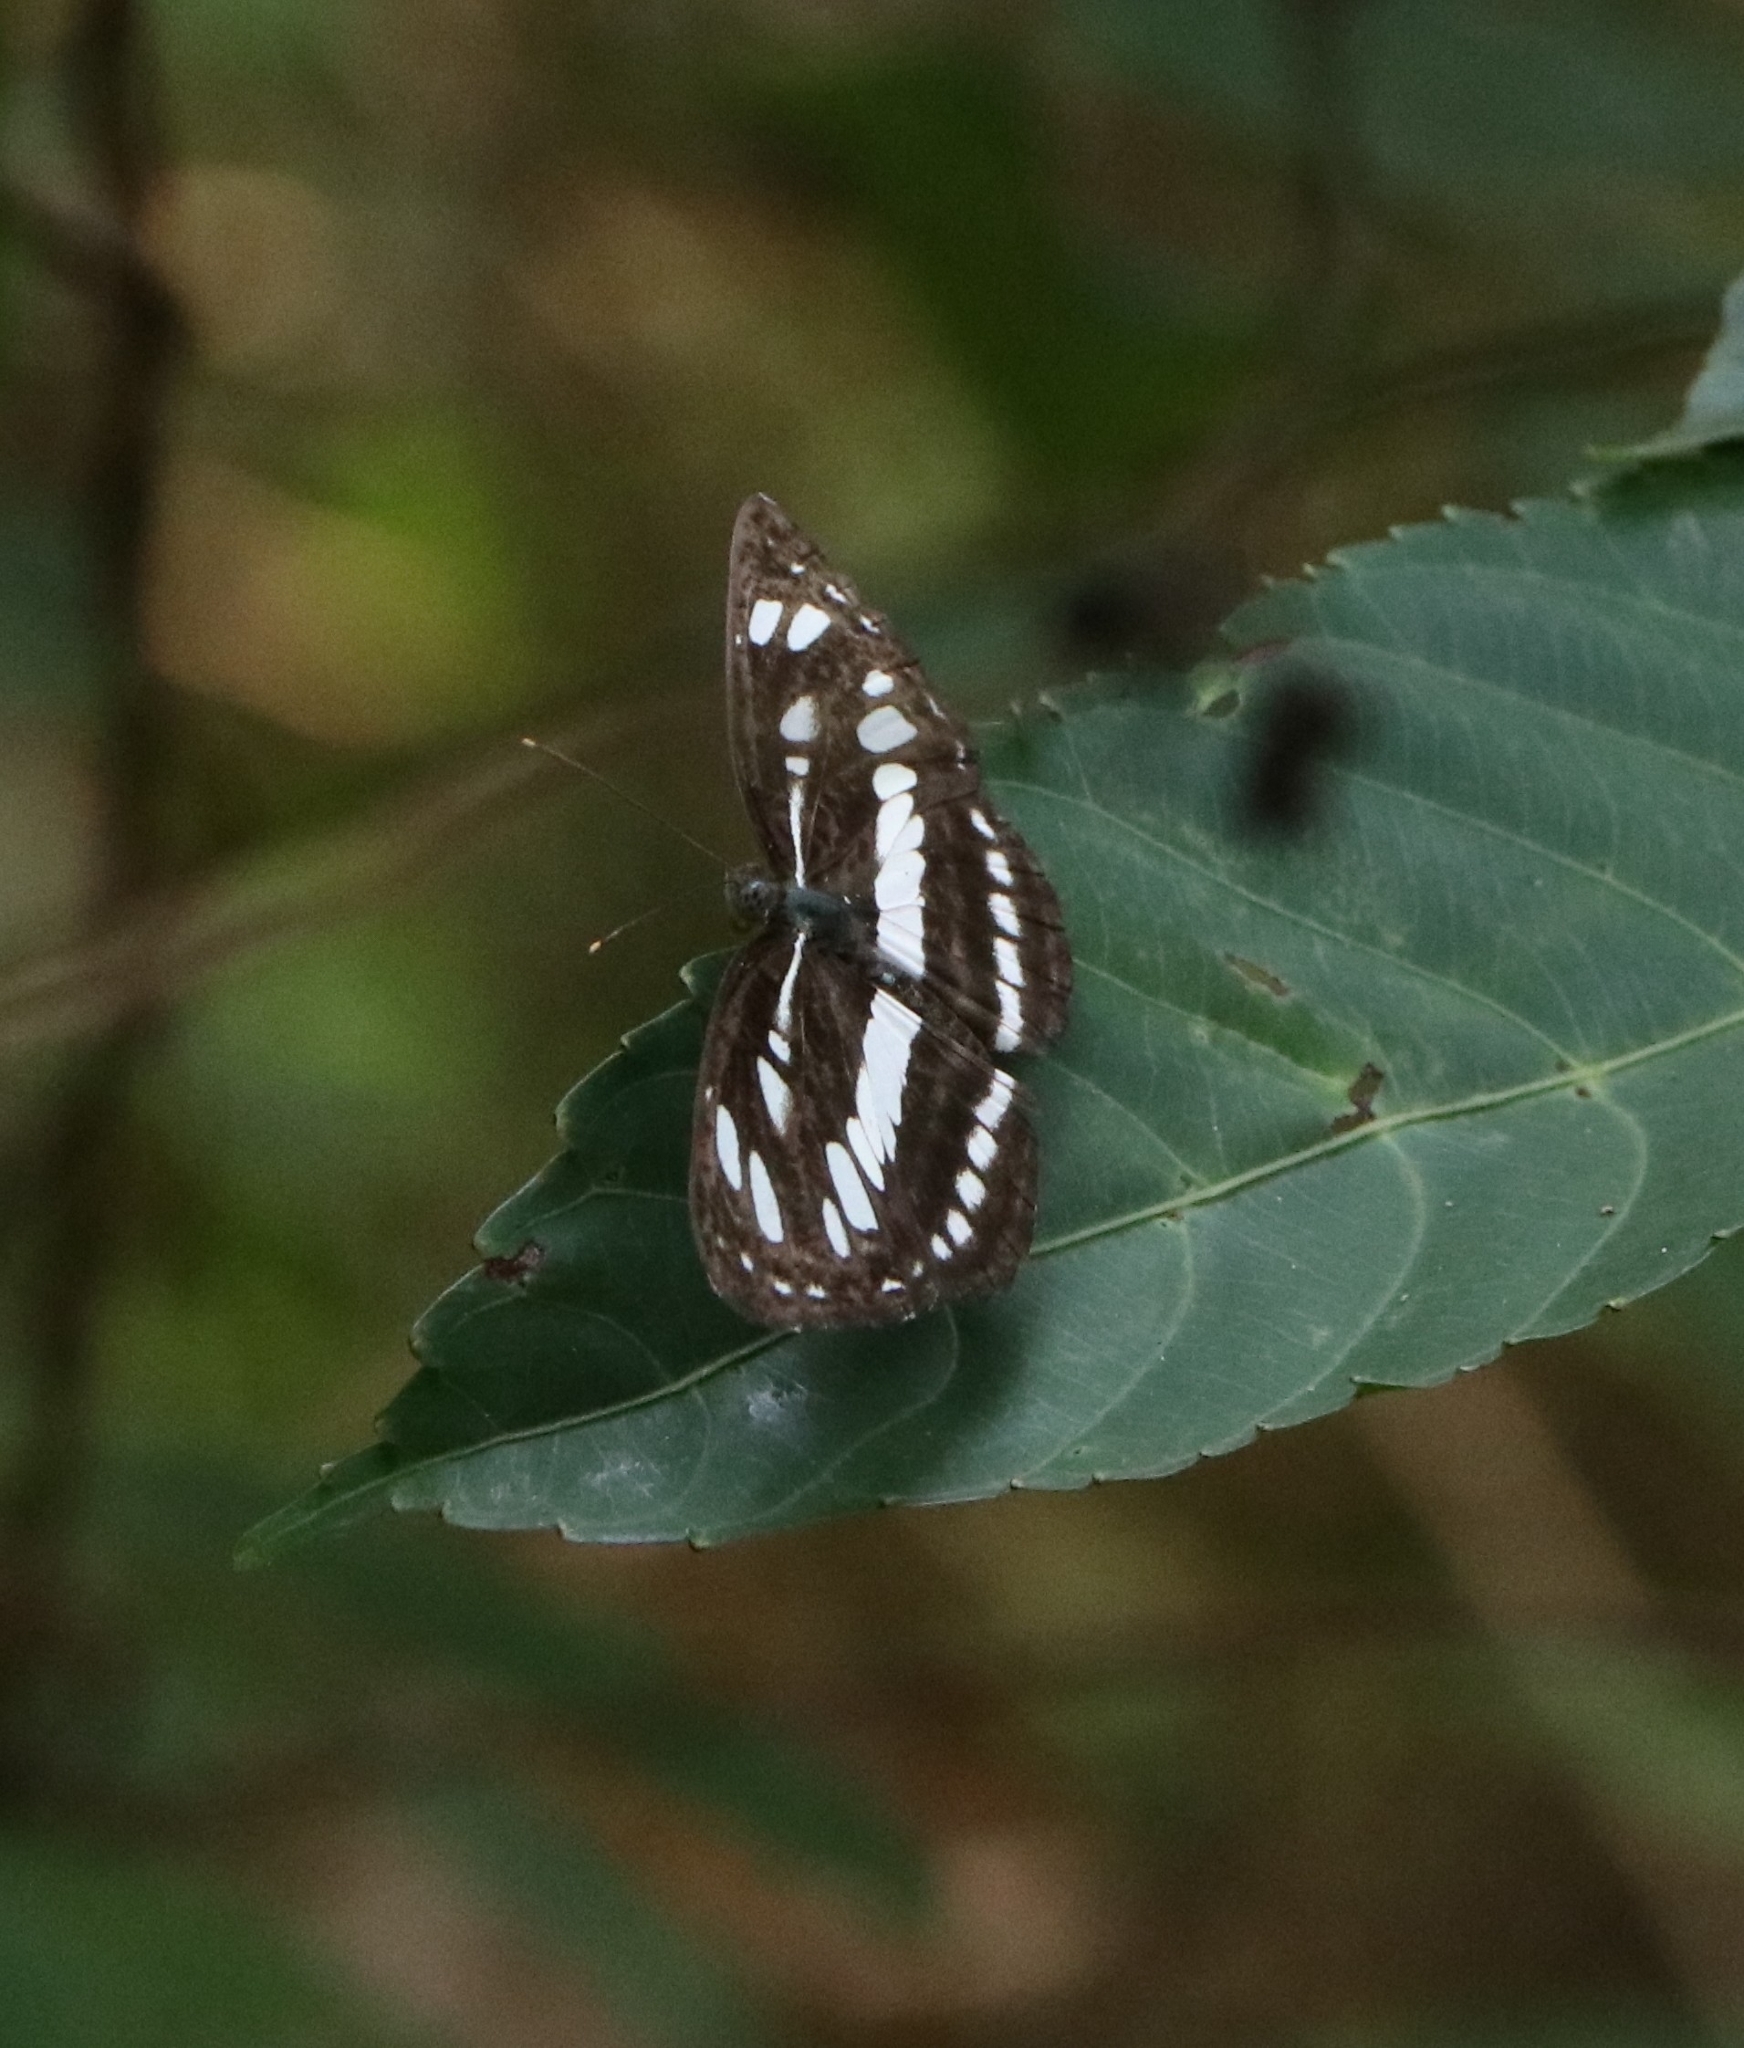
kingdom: Animalia
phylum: Arthropoda
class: Insecta
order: Lepidoptera
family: Nymphalidae
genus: Neptis
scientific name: Neptis hylas
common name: Common sailer
